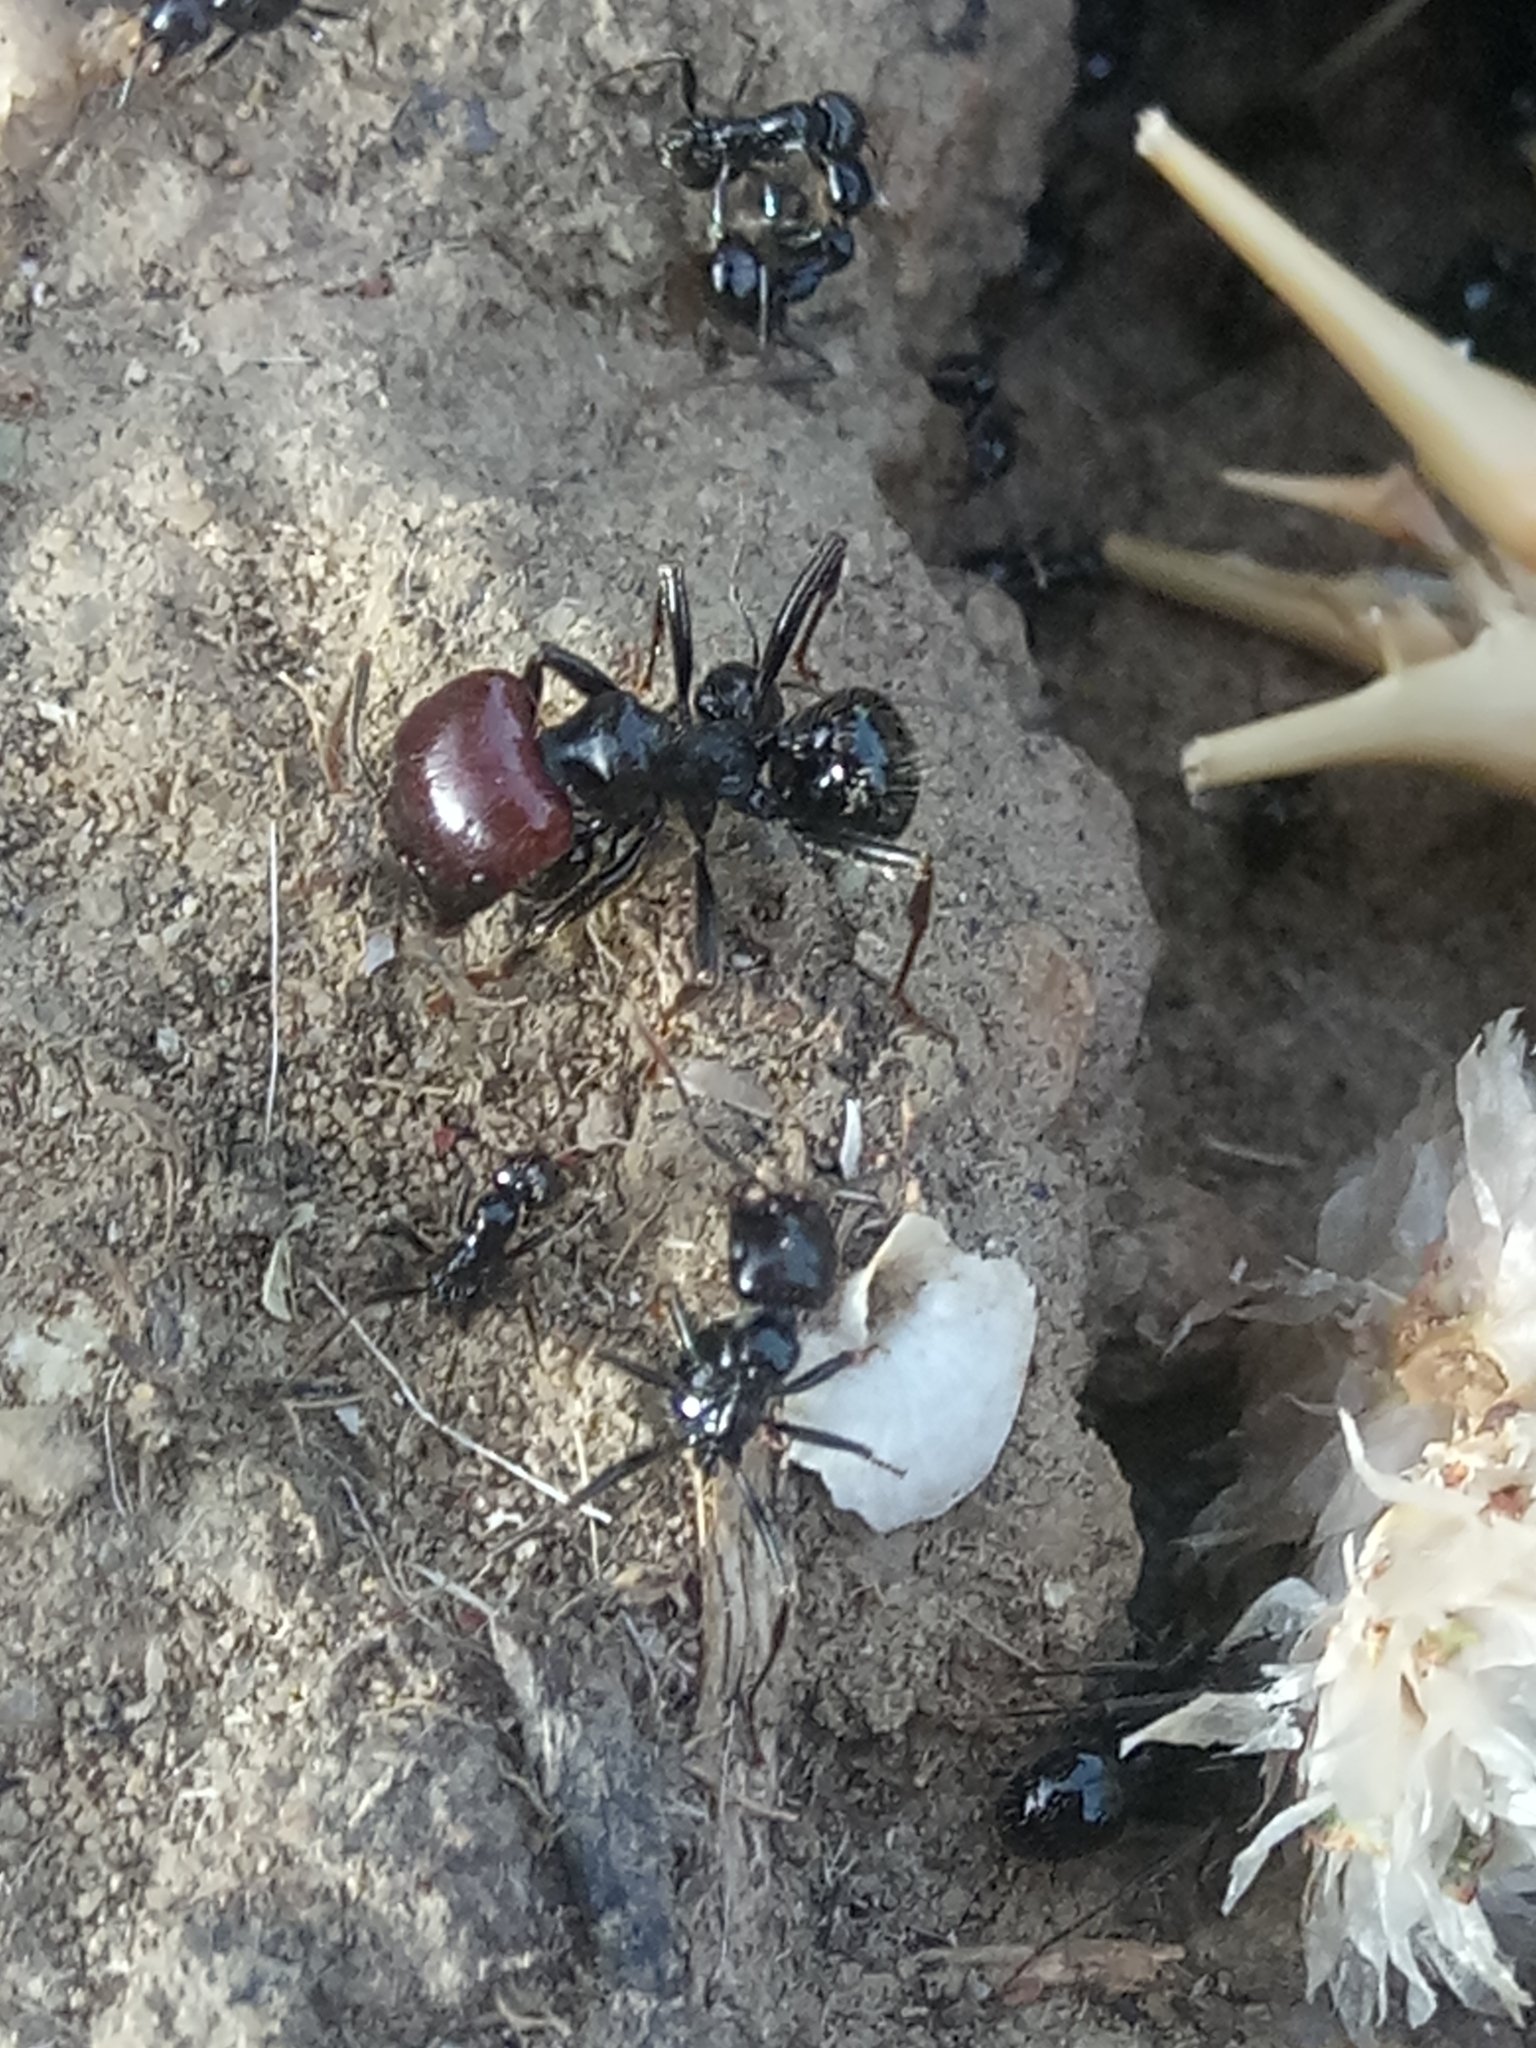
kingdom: Animalia
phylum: Arthropoda
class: Insecta
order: Hymenoptera
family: Formicidae
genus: Messor
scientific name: Messor barbarus
